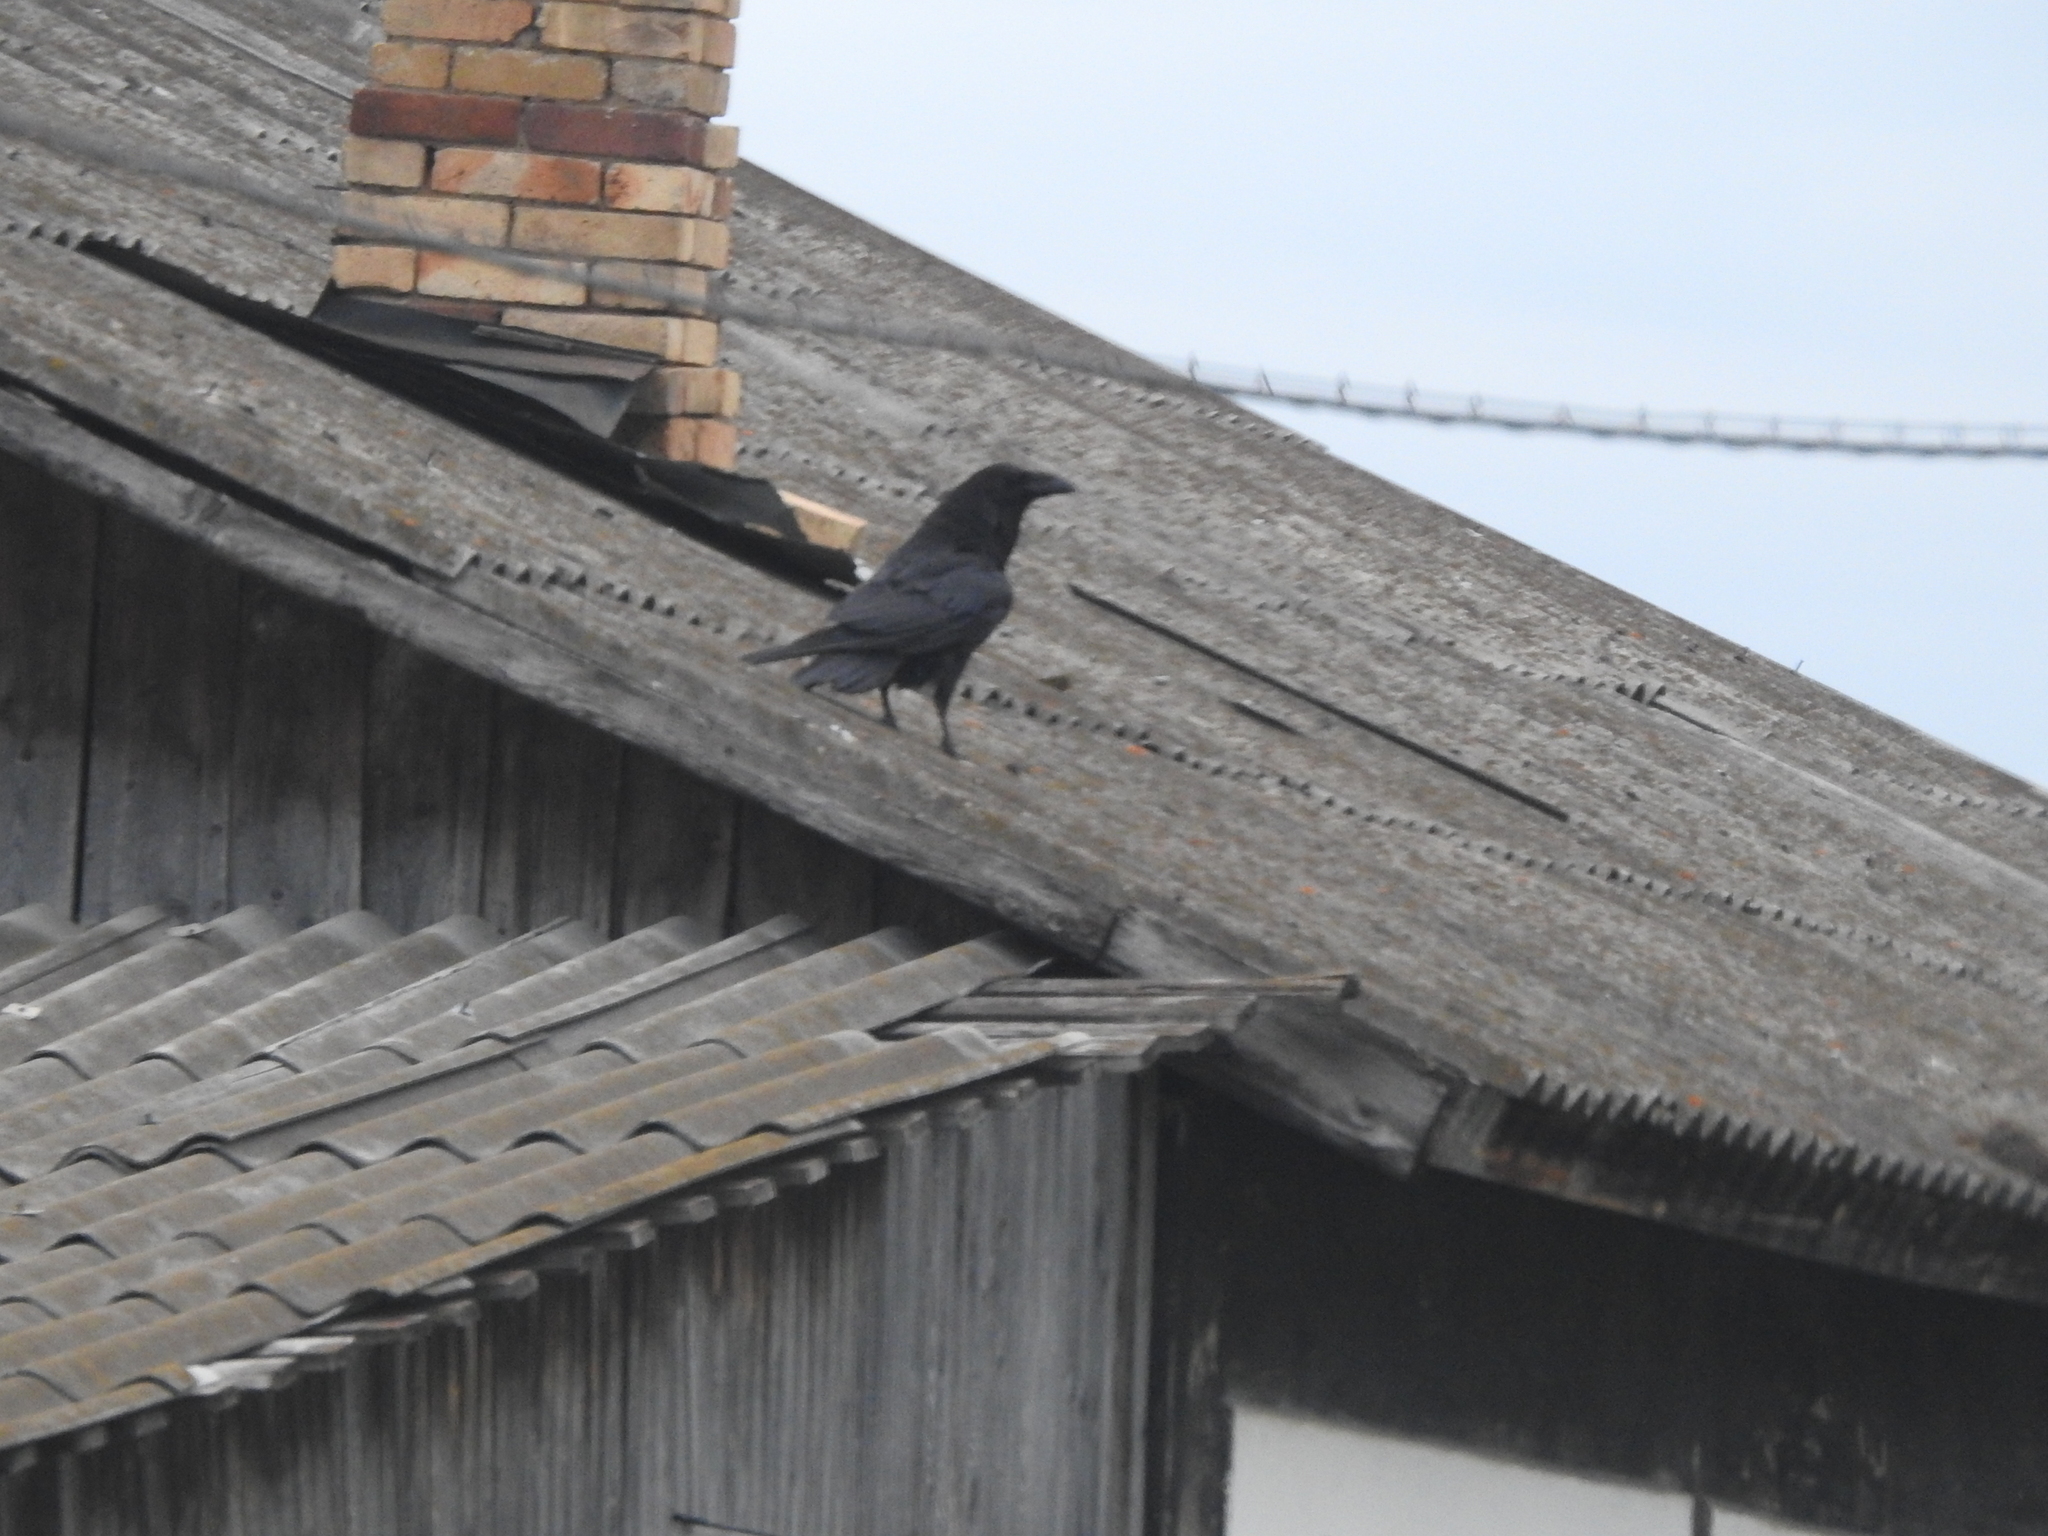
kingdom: Animalia
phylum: Chordata
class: Aves
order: Passeriformes
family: Corvidae
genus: Corvus
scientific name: Corvus corax
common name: Common raven
